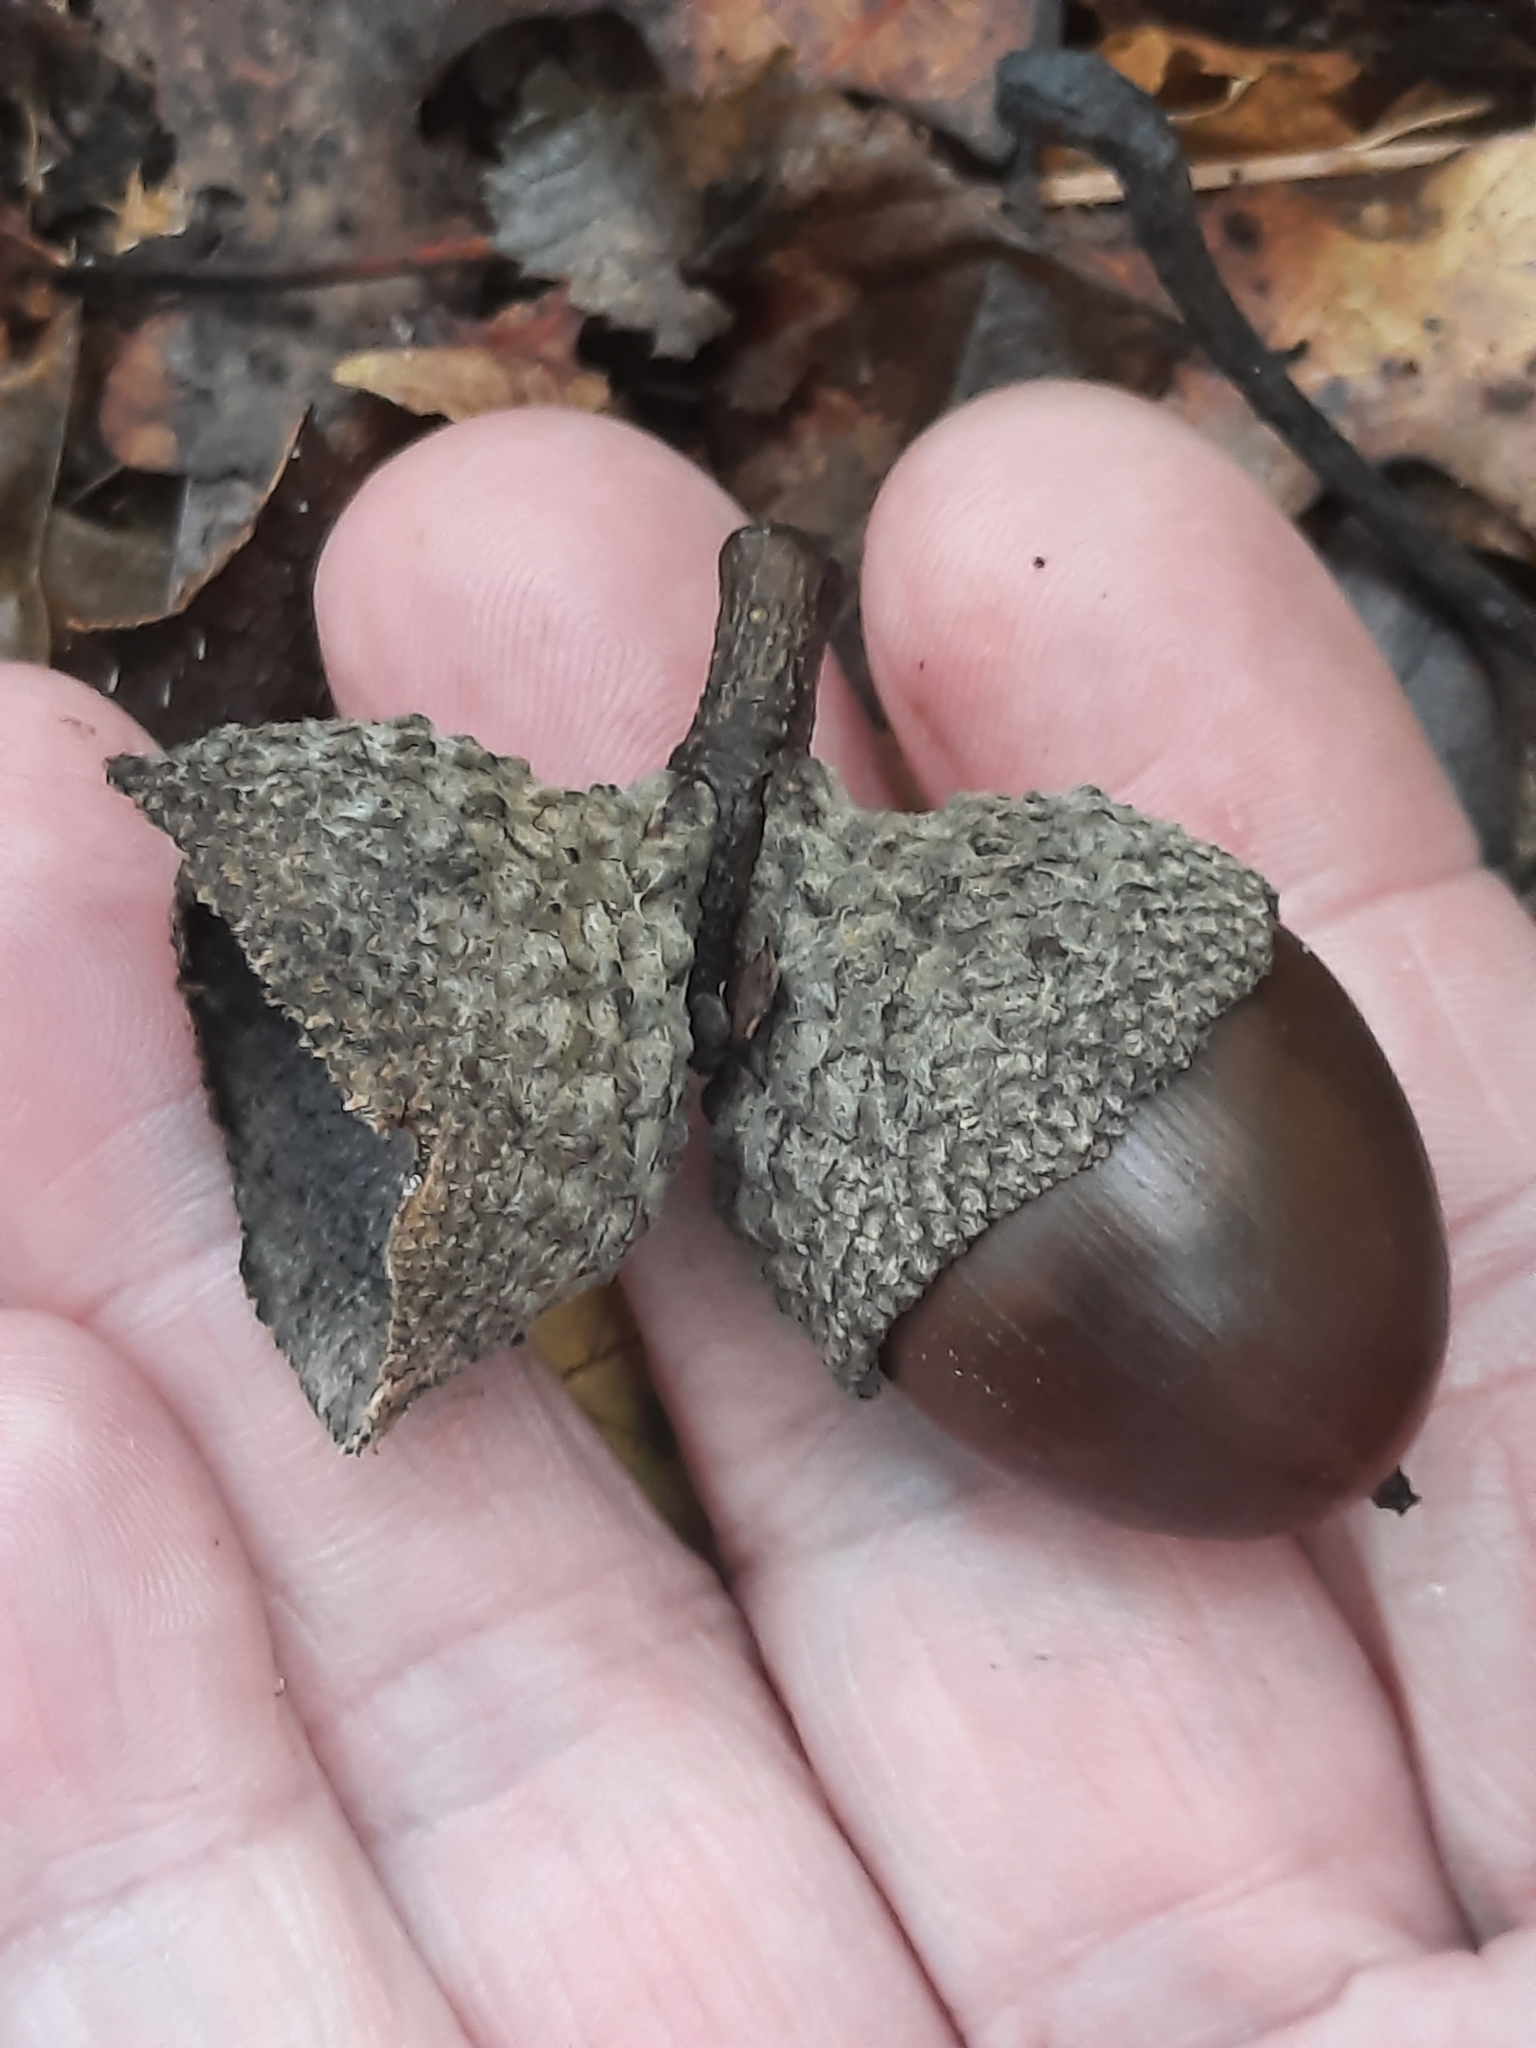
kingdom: Plantae
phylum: Tracheophyta
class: Magnoliopsida
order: Fagales
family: Fagaceae
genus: Quercus
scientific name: Quercus montana
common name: Chestnut oak
